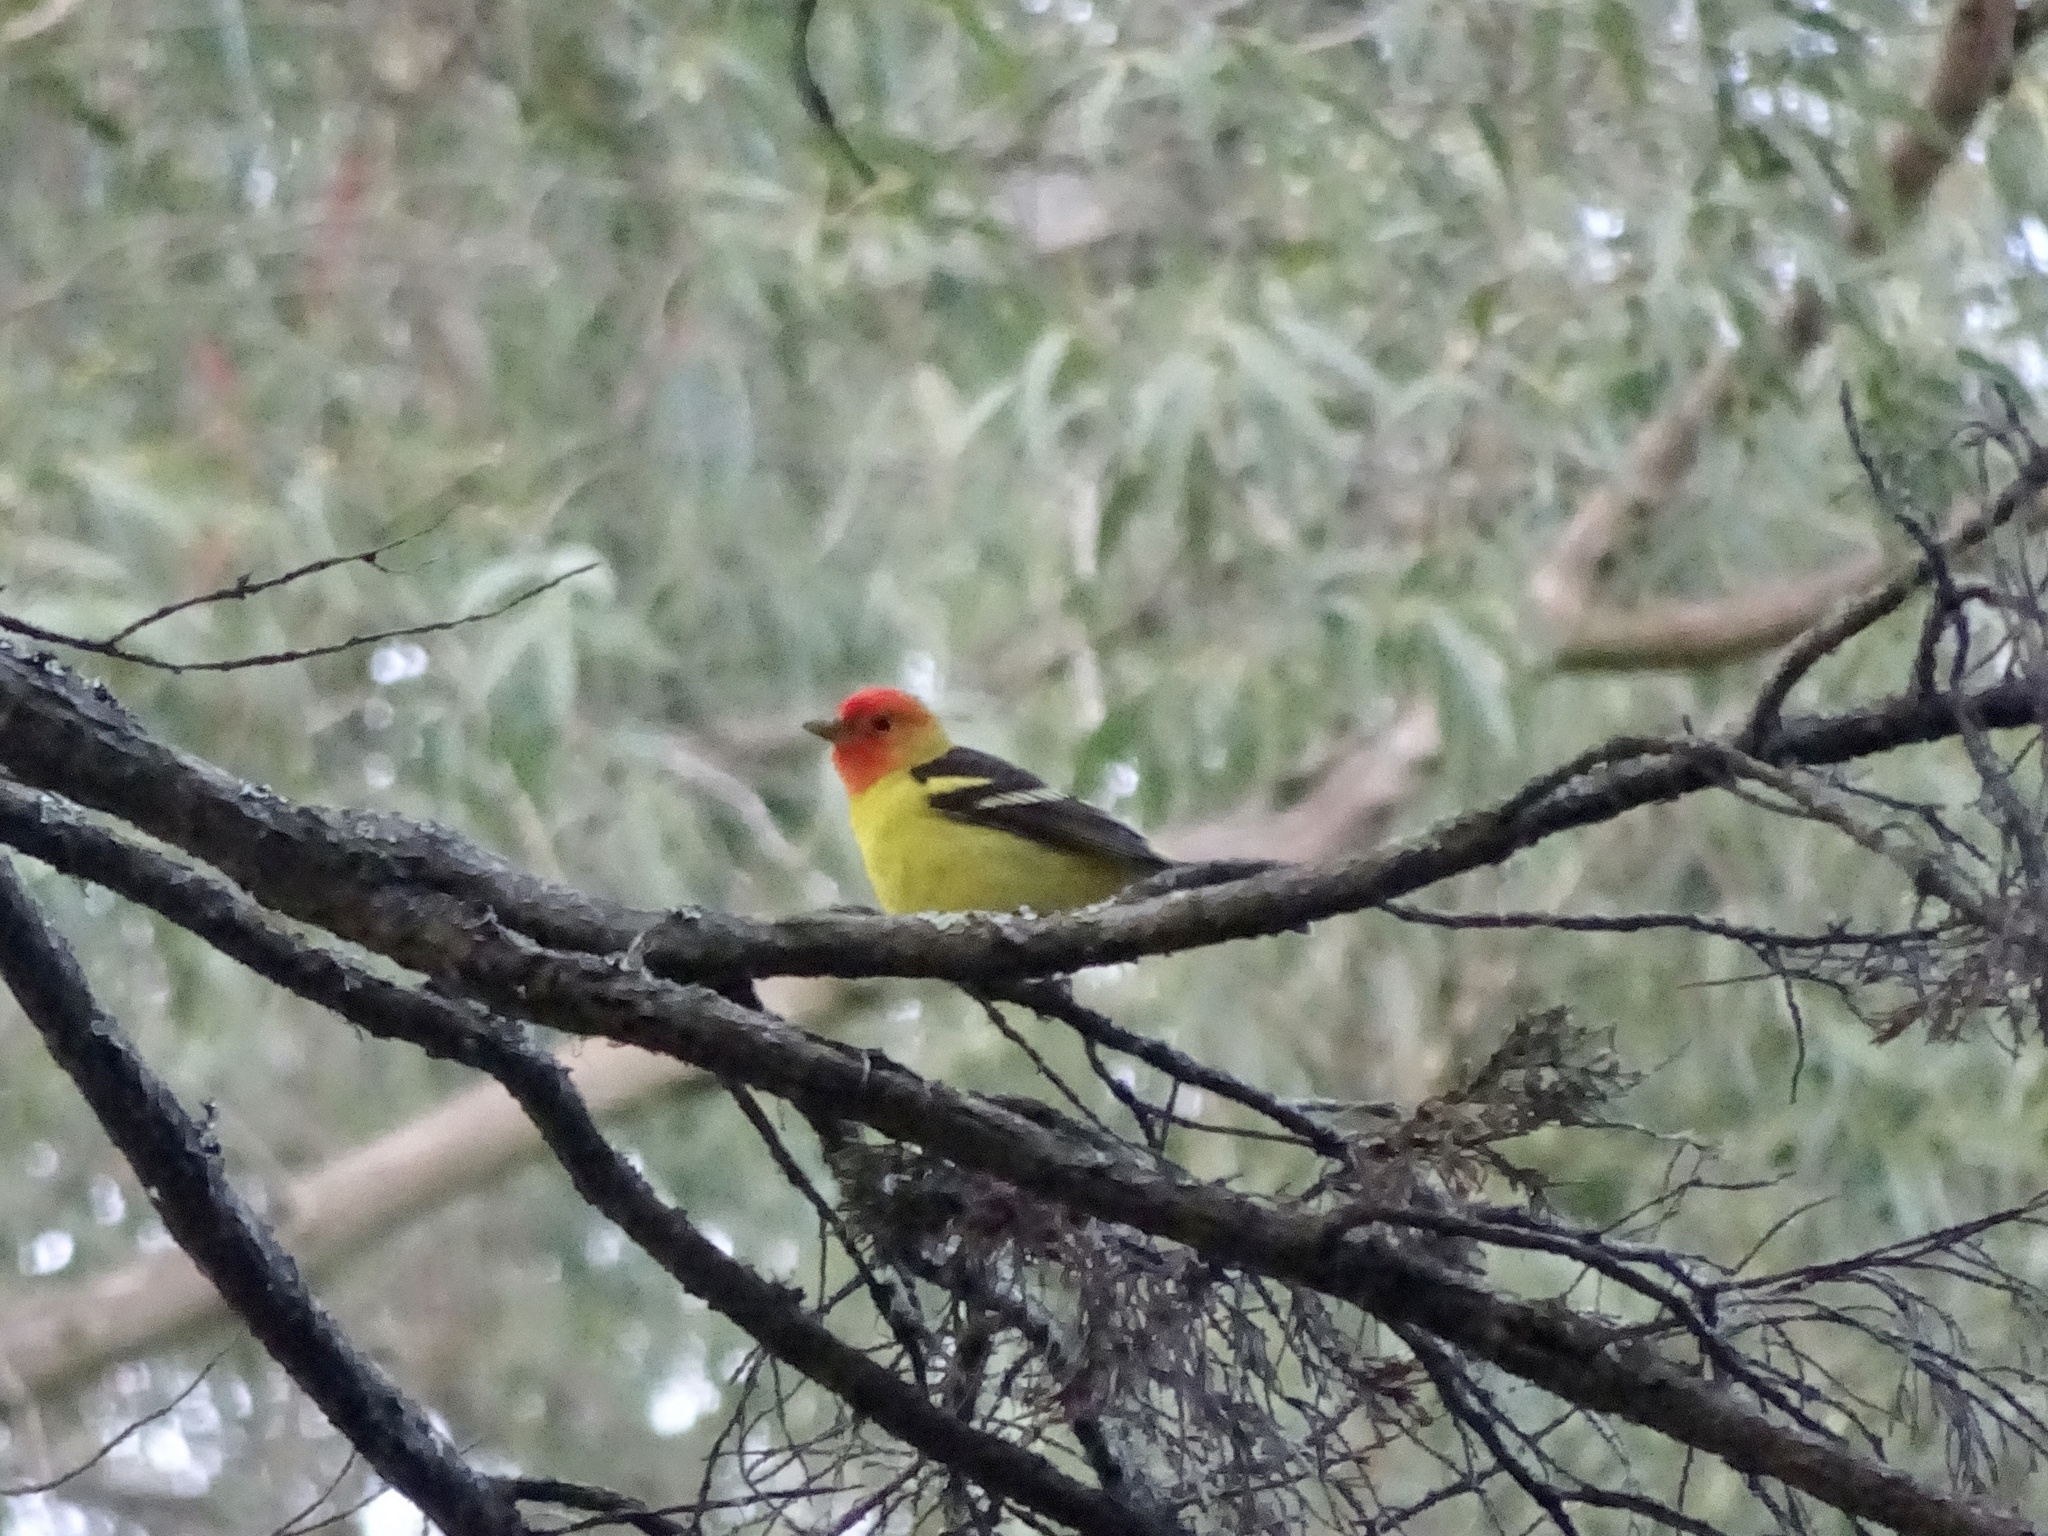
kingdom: Animalia
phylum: Chordata
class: Aves
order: Passeriformes
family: Cardinalidae
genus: Piranga
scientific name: Piranga ludoviciana
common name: Western tanager
